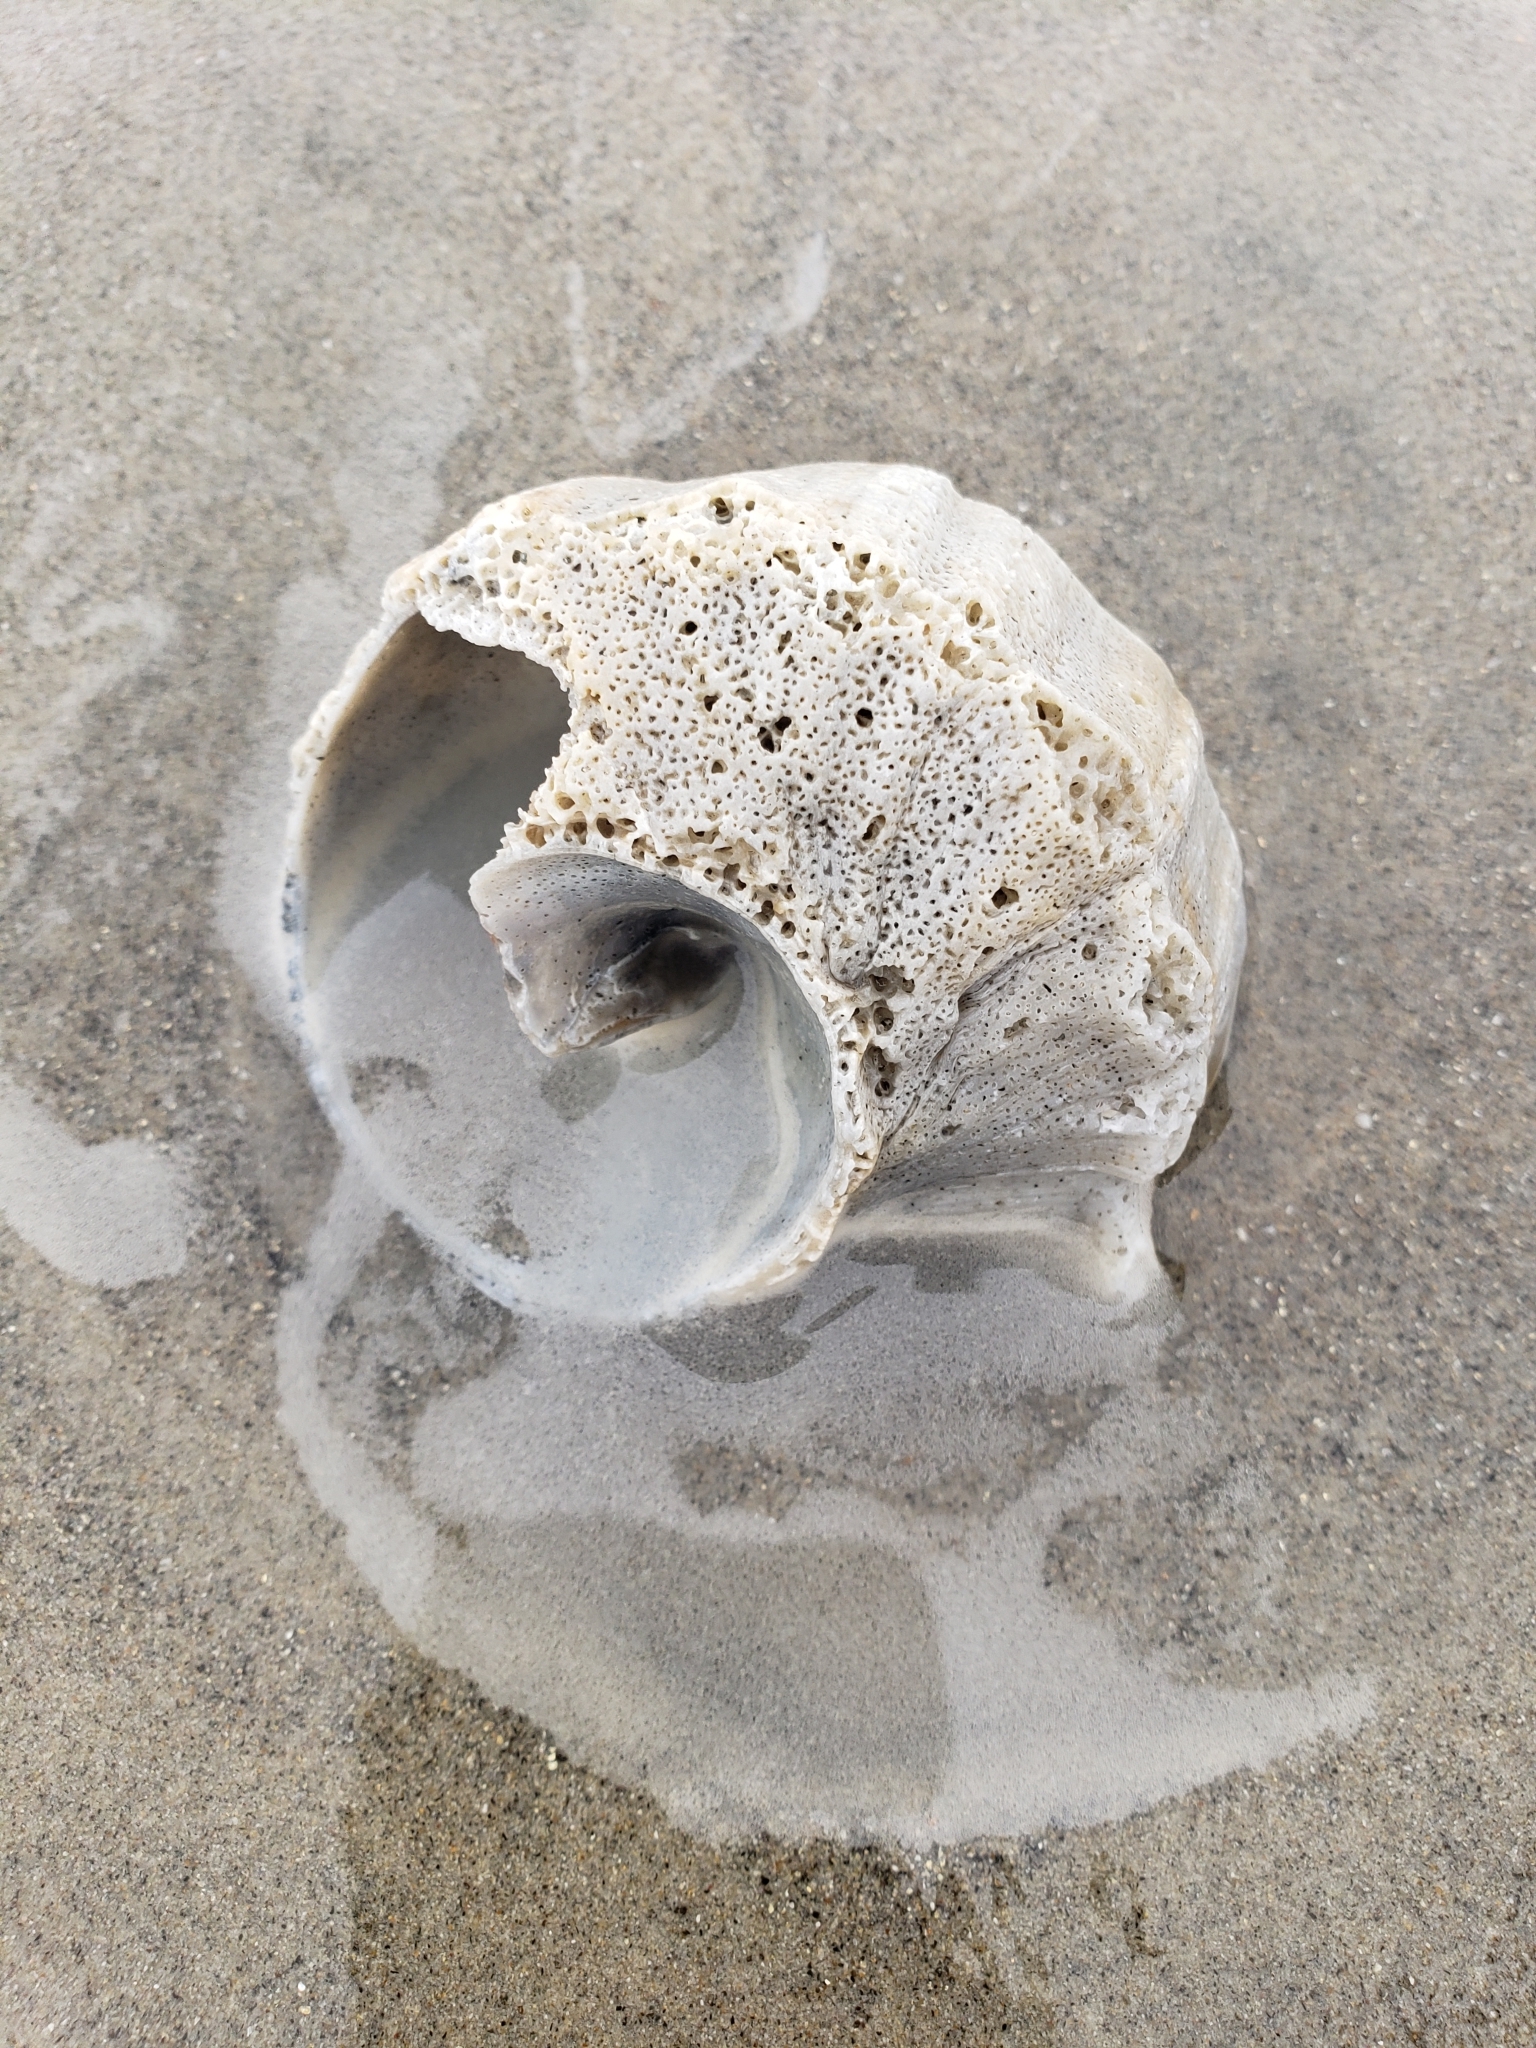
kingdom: Animalia
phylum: Mollusca
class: Gastropoda
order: Neogastropoda
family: Muricidae
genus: Forreria
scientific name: Forreria belcheri
